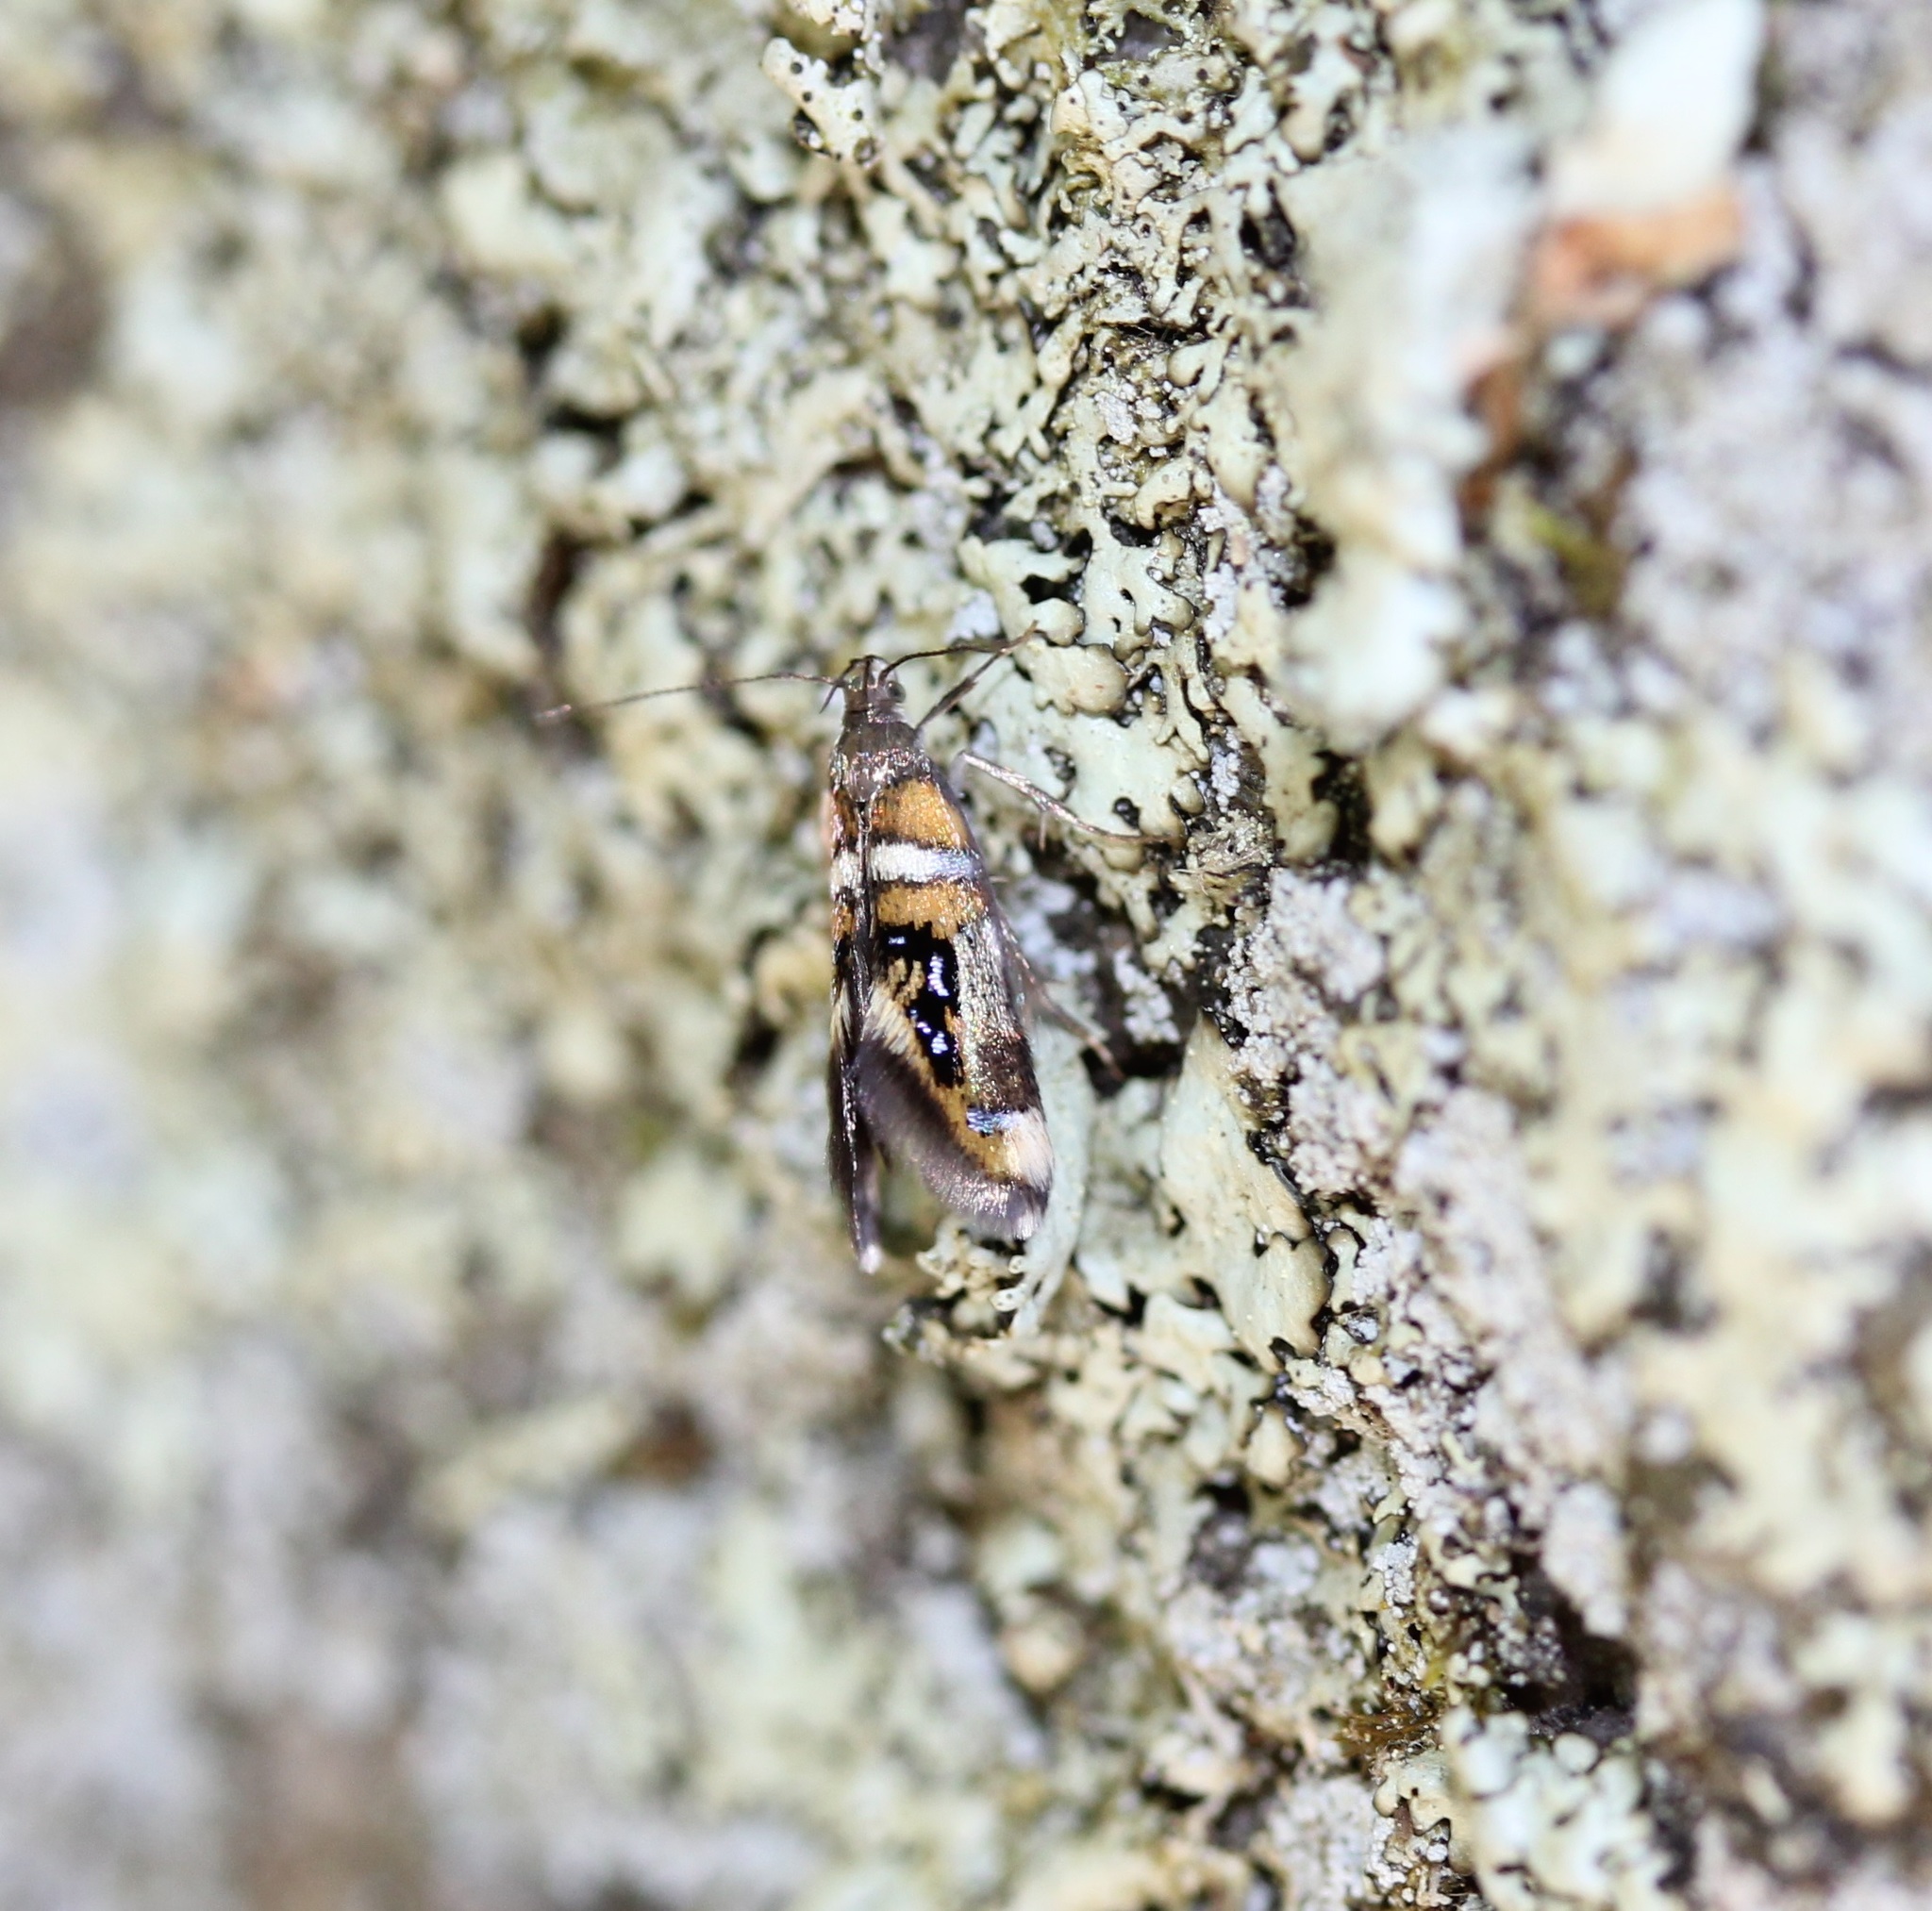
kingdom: Animalia
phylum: Arthropoda
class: Insecta
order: Lepidoptera
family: Oecophoridae
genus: Fabiola
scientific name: Fabiola shalleriella
